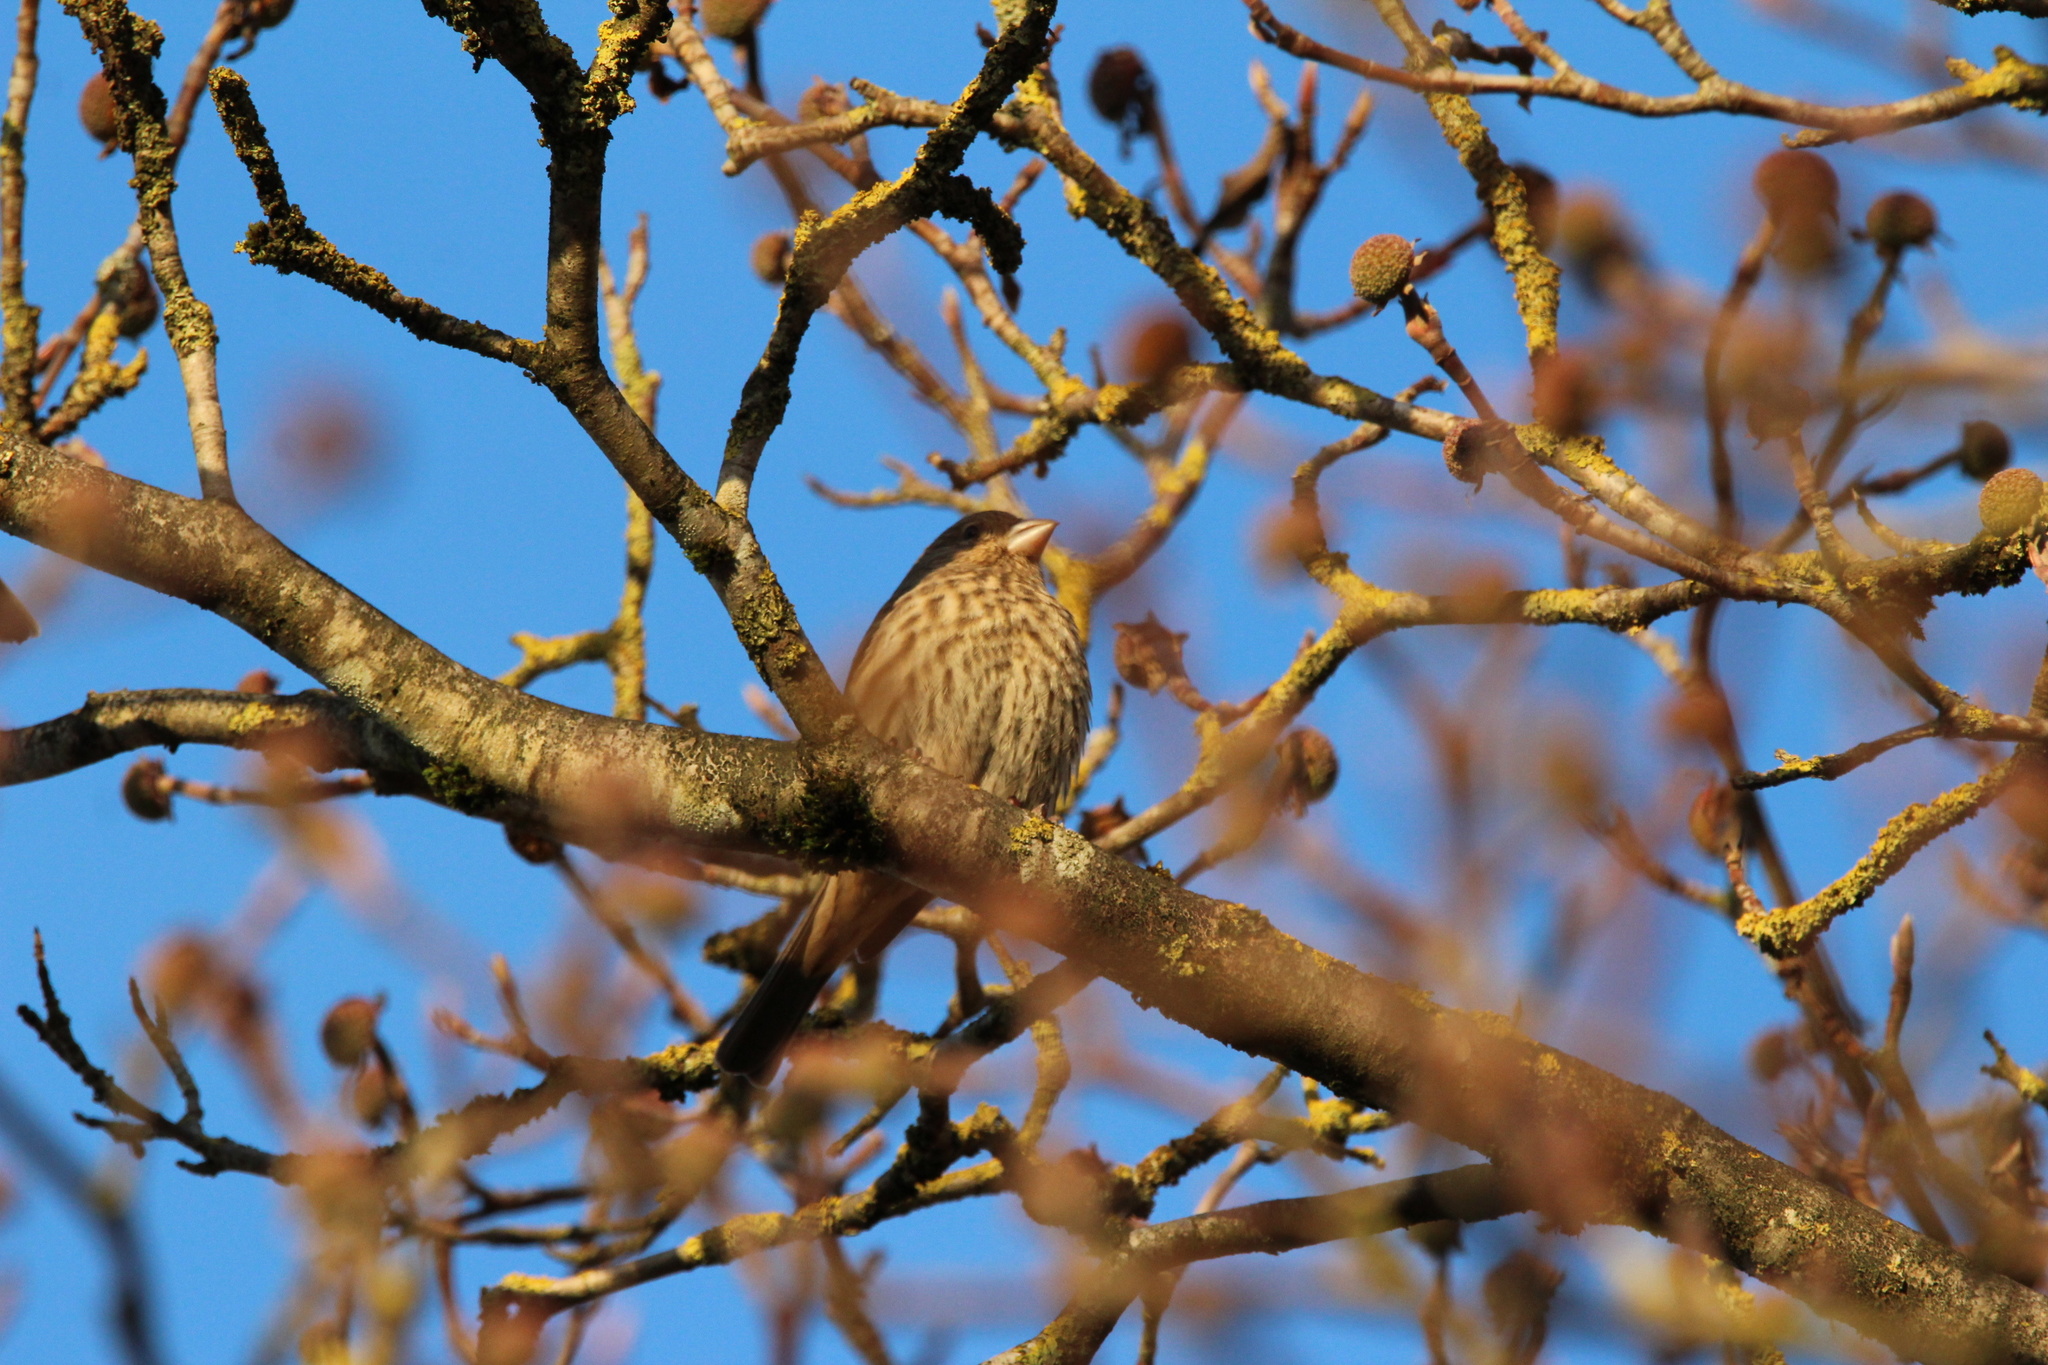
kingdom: Animalia
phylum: Chordata
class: Aves
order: Passeriformes
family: Fringillidae
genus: Haemorhous
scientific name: Haemorhous mexicanus
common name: House finch
